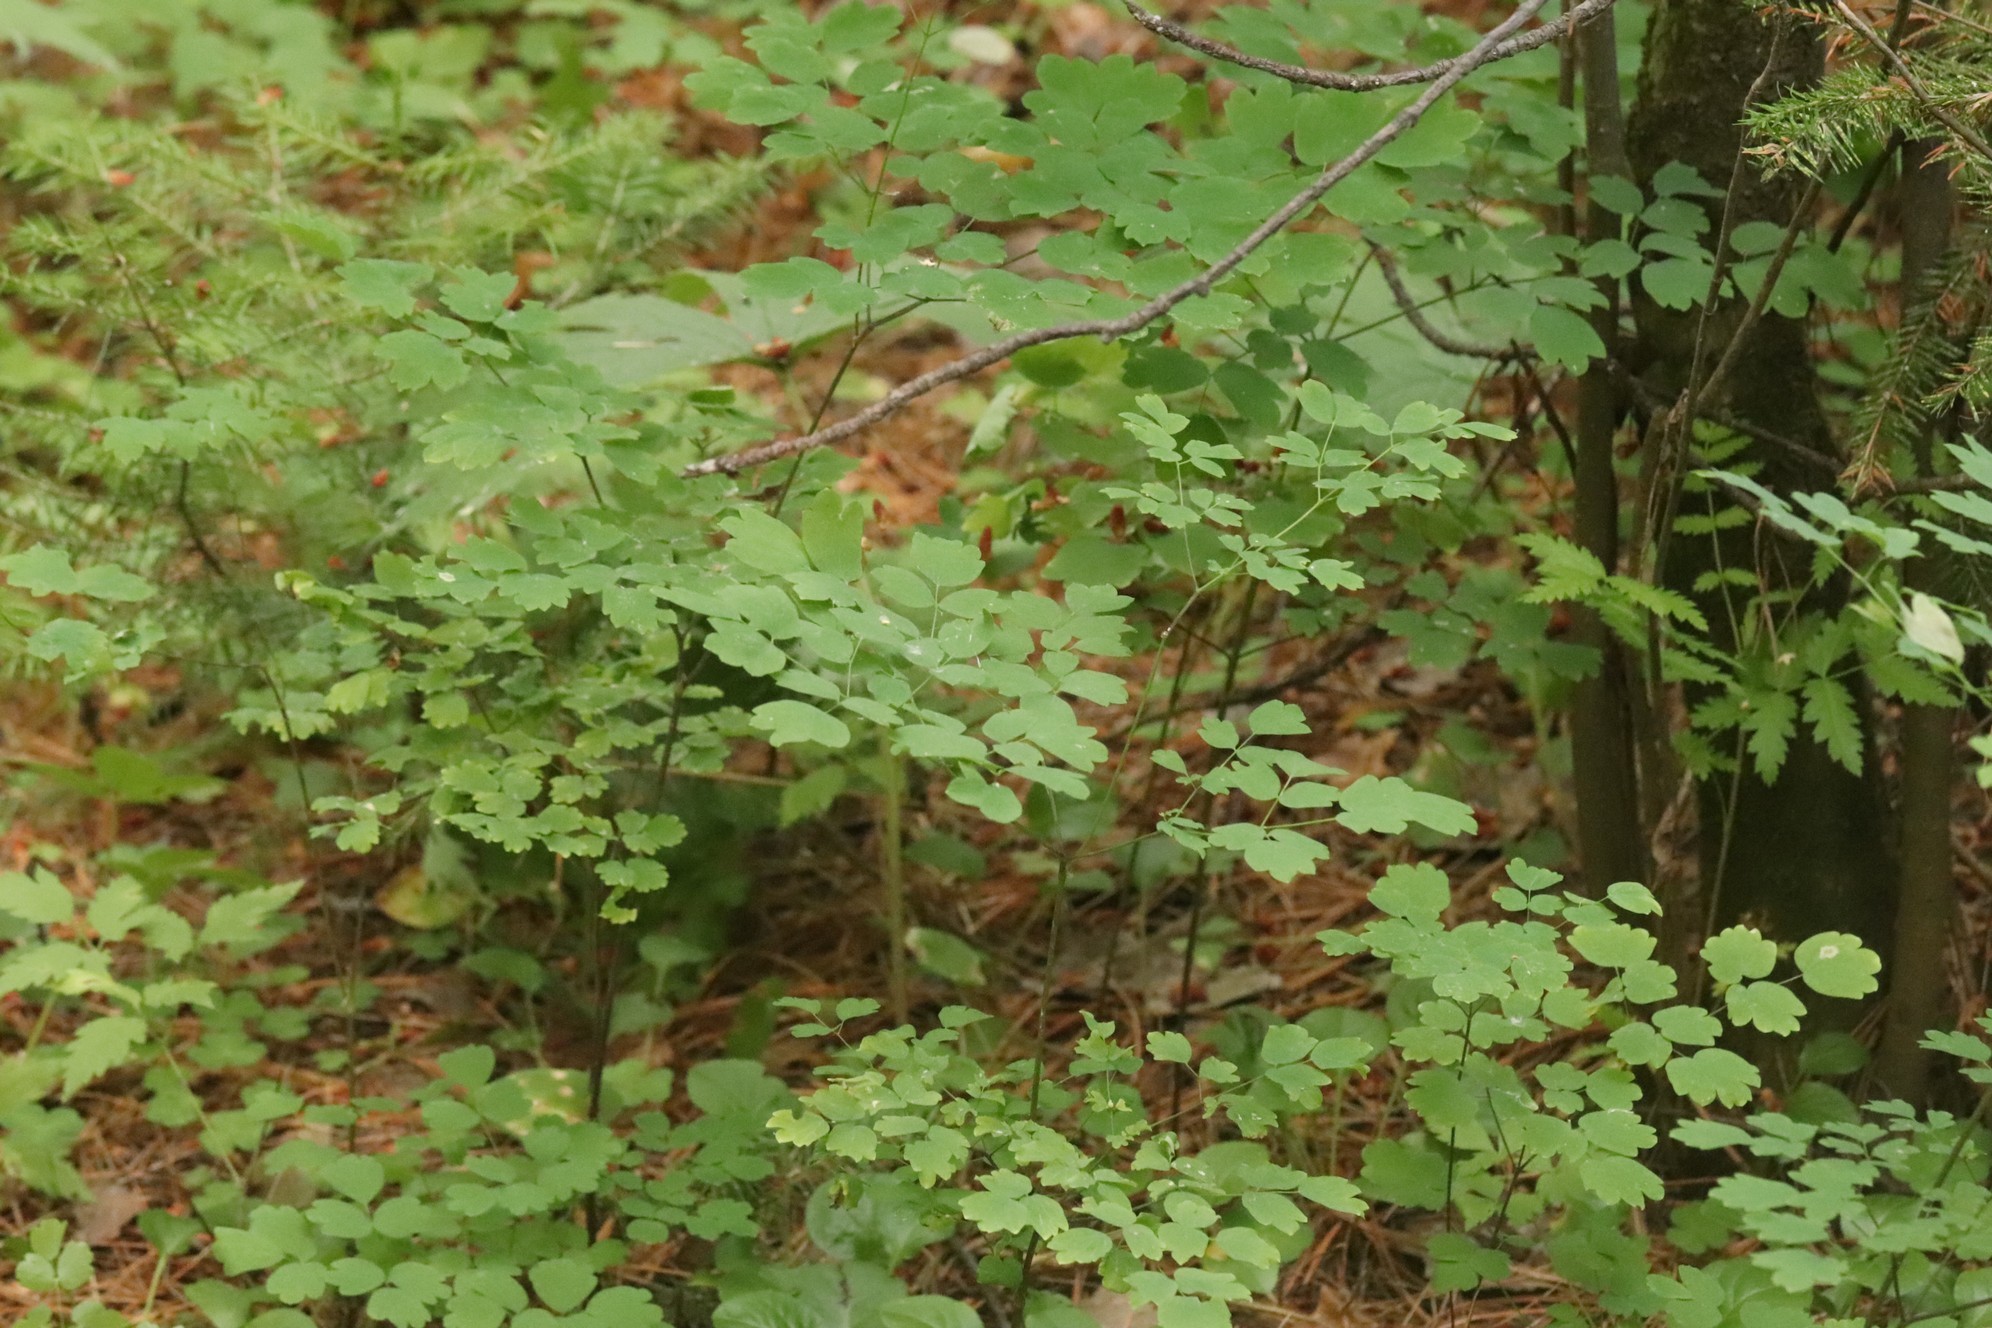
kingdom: Plantae
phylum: Tracheophyta
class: Magnoliopsida
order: Ranunculales
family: Ranunculaceae
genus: Thalictrum
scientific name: Thalictrum minus
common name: Lesser meadow-rue
